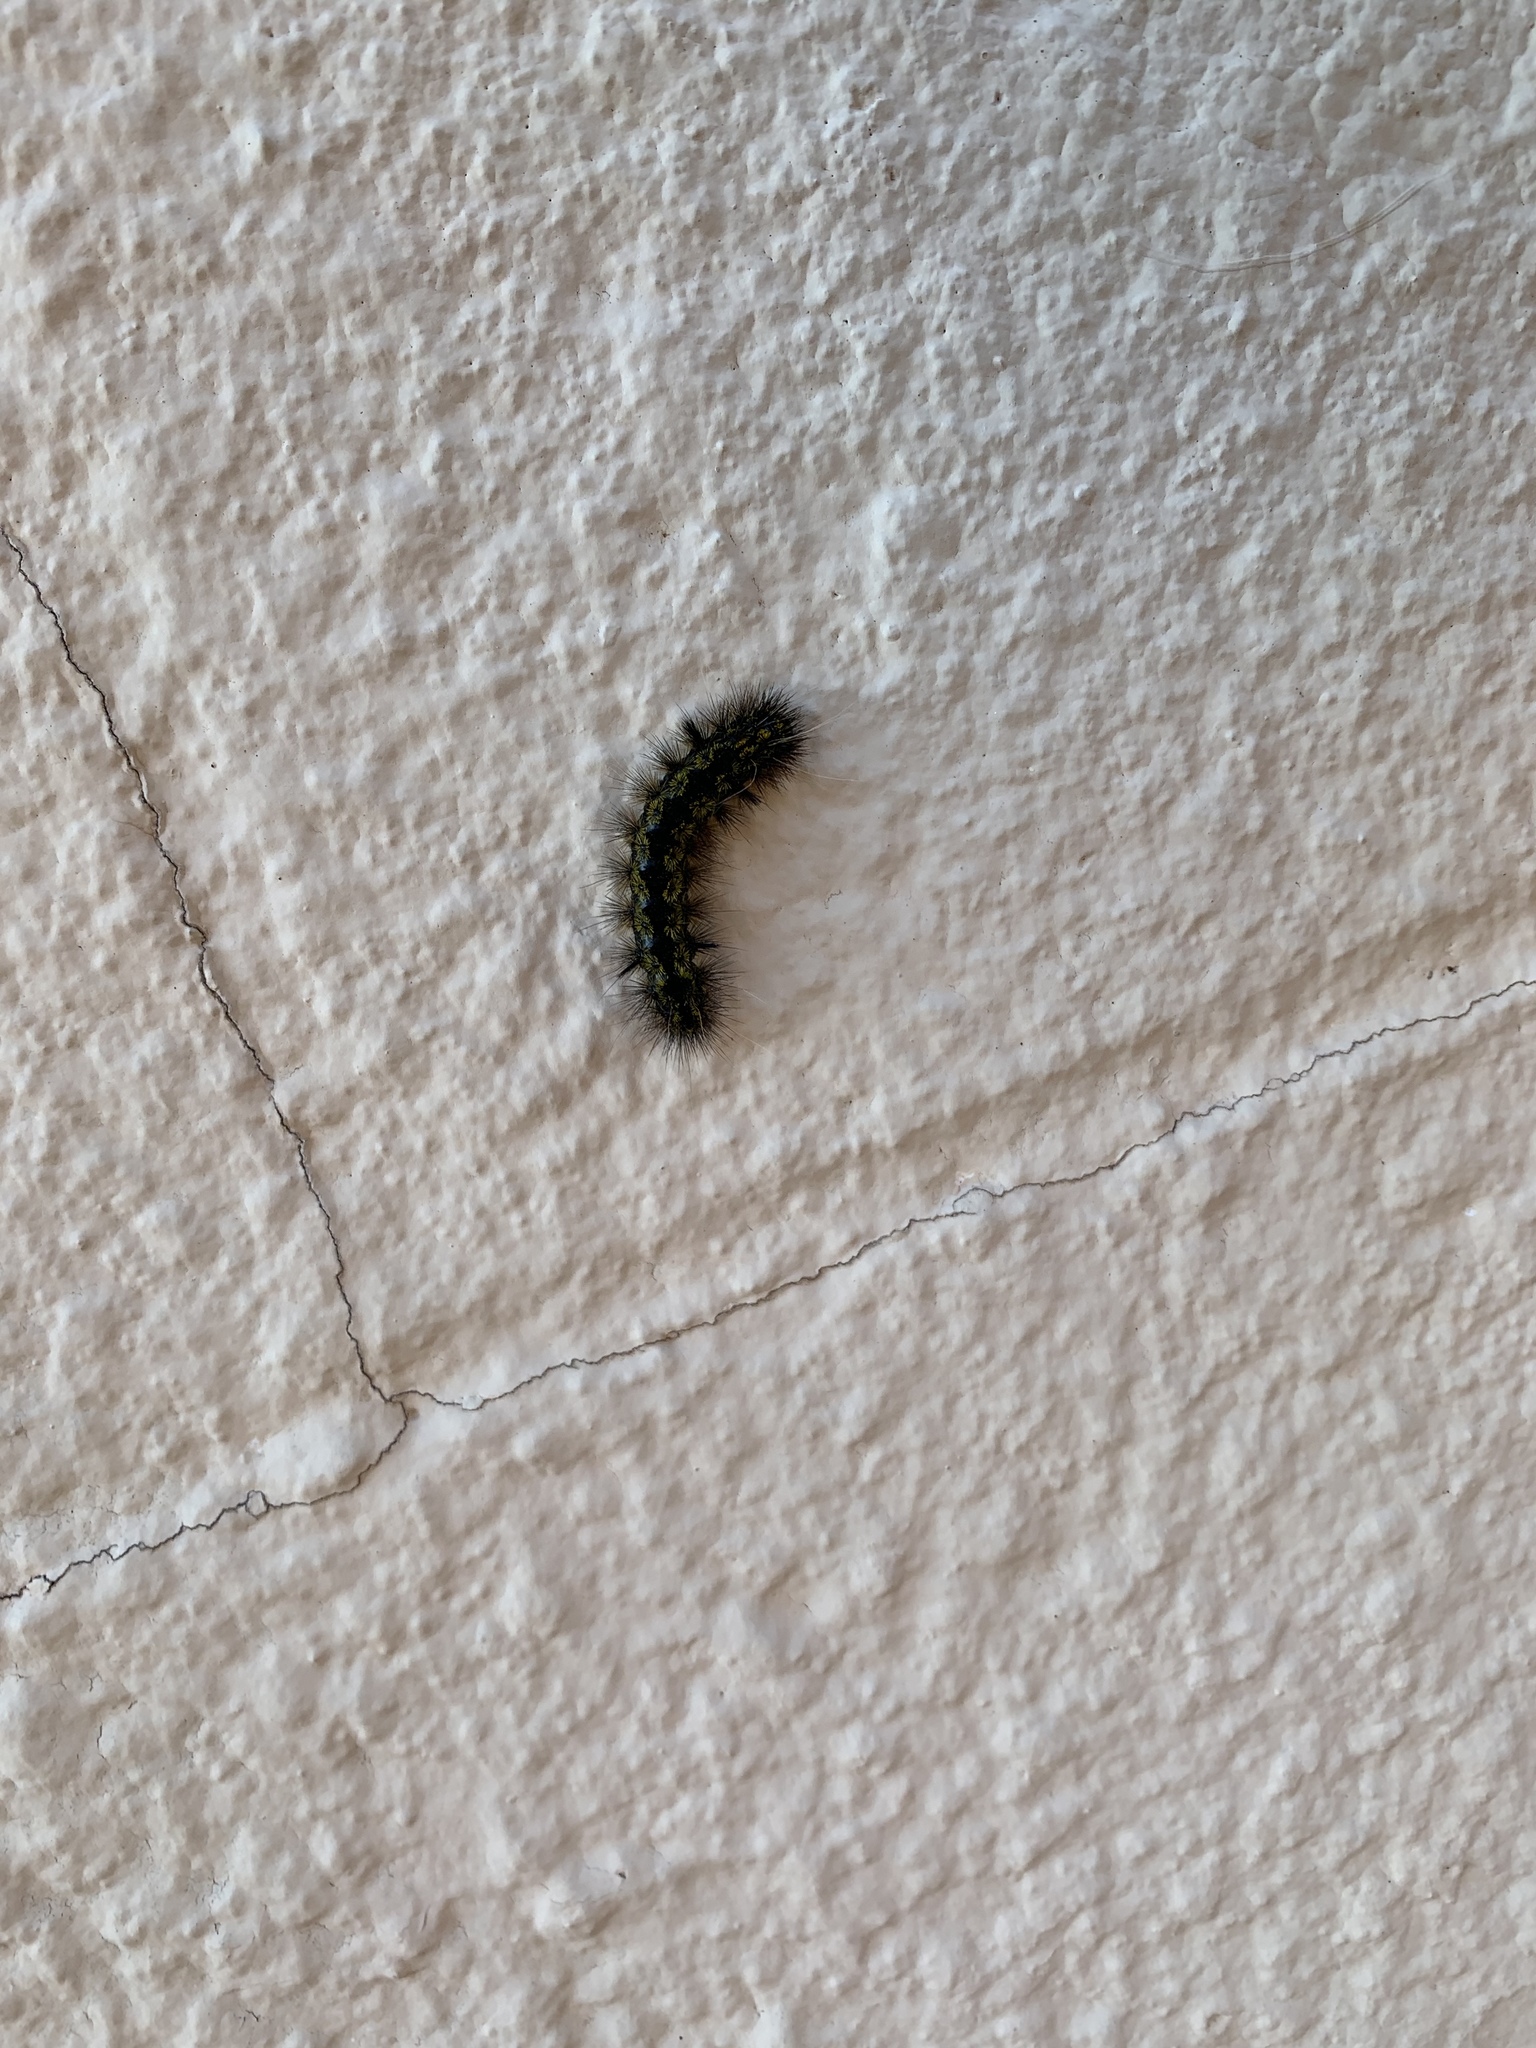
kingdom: Animalia
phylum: Arthropoda
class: Insecta
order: Lepidoptera
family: Erebidae
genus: Lophocampa
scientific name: Lophocampa argentata
